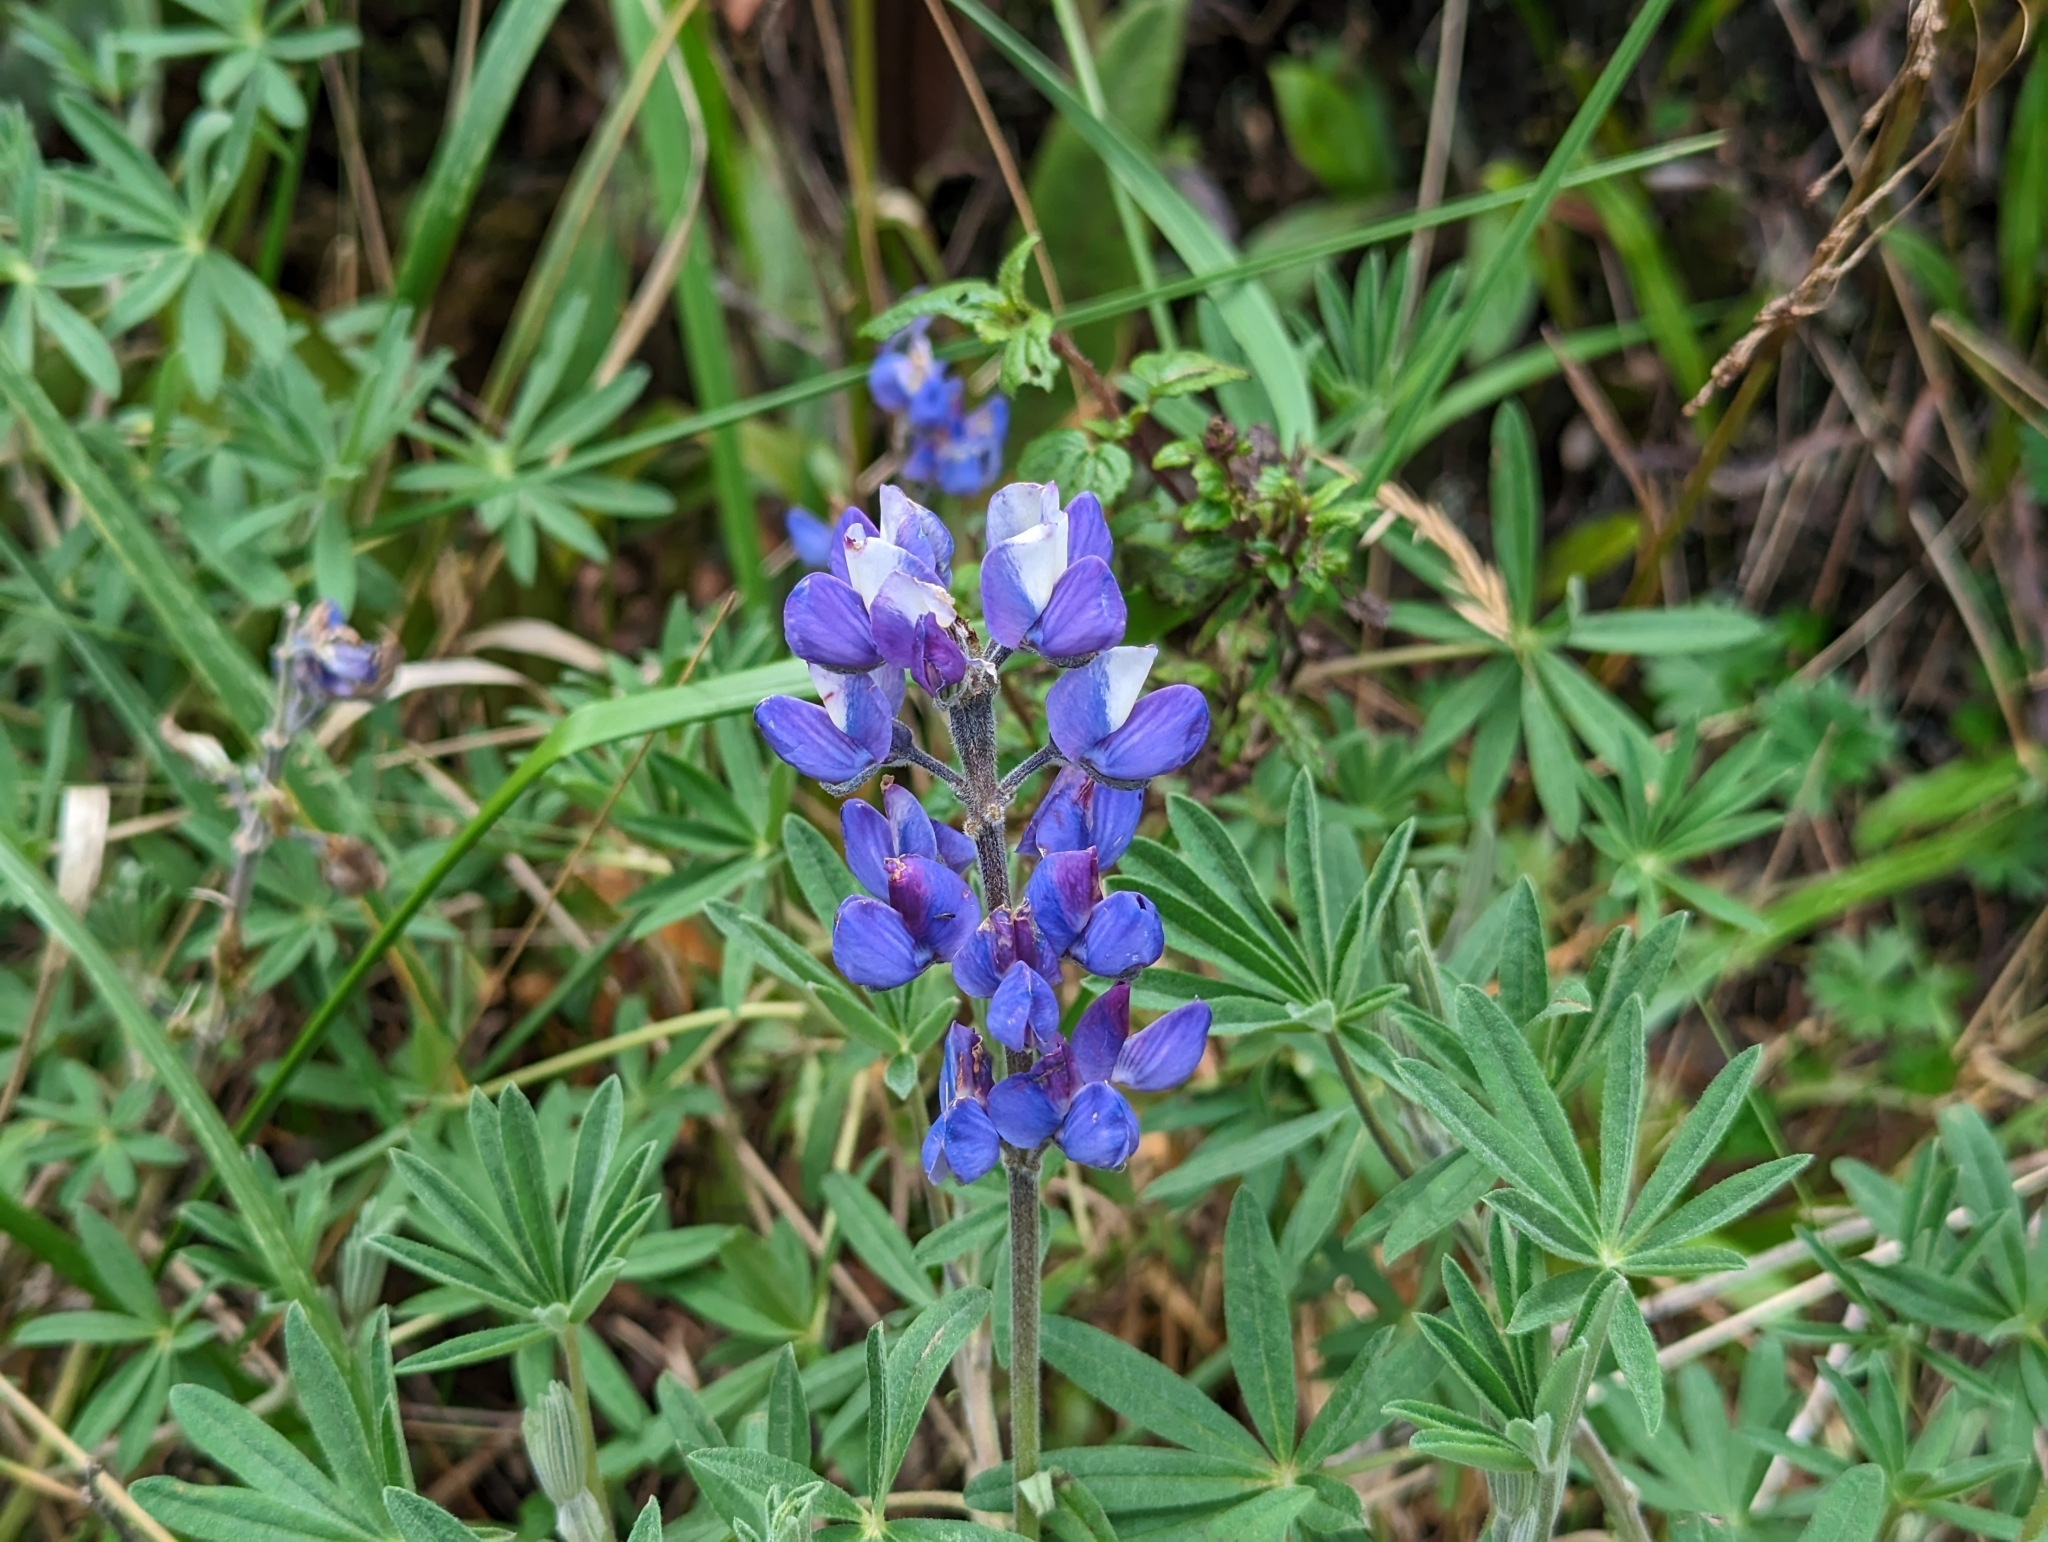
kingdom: Plantae
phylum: Tracheophyta
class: Magnoliopsida
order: Fabales
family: Fabaceae
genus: Lupinus
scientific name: Lupinus pubescens
